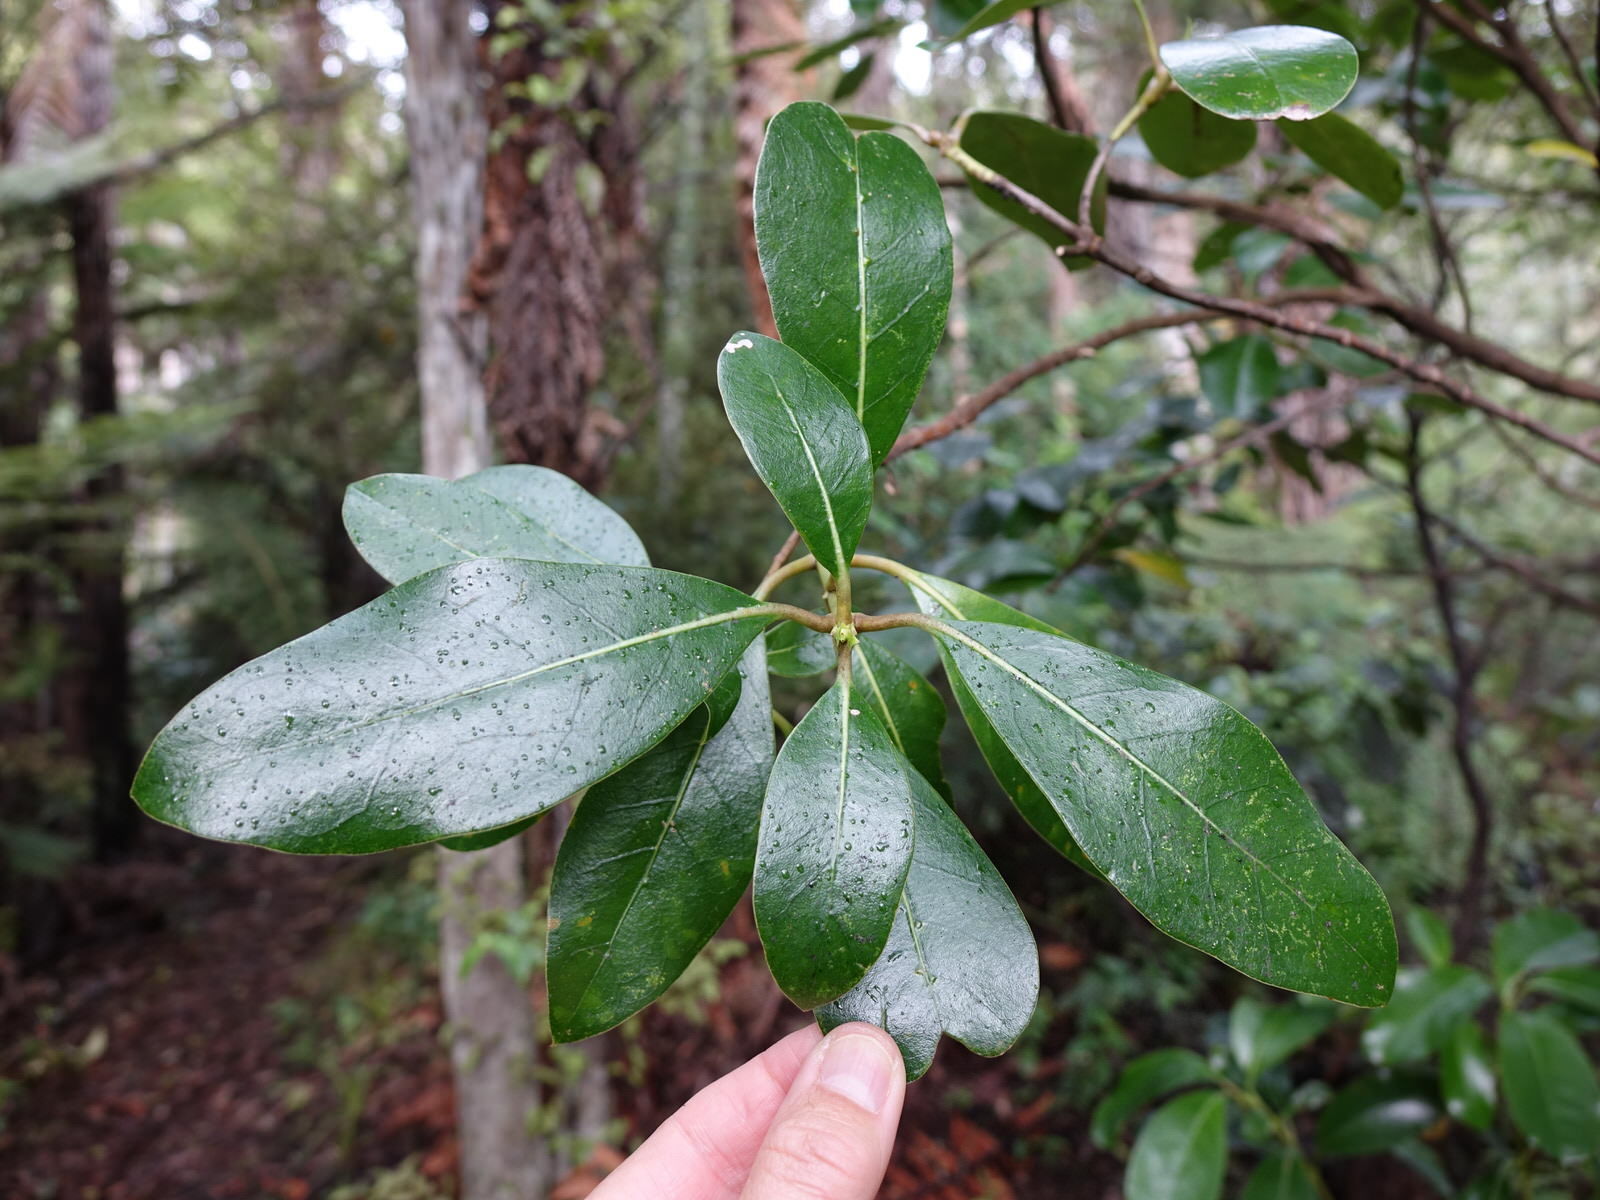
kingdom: Plantae
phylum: Tracheophyta
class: Magnoliopsida
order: Gentianales
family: Rubiaceae
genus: Coprosma
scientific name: Coprosma lucida
